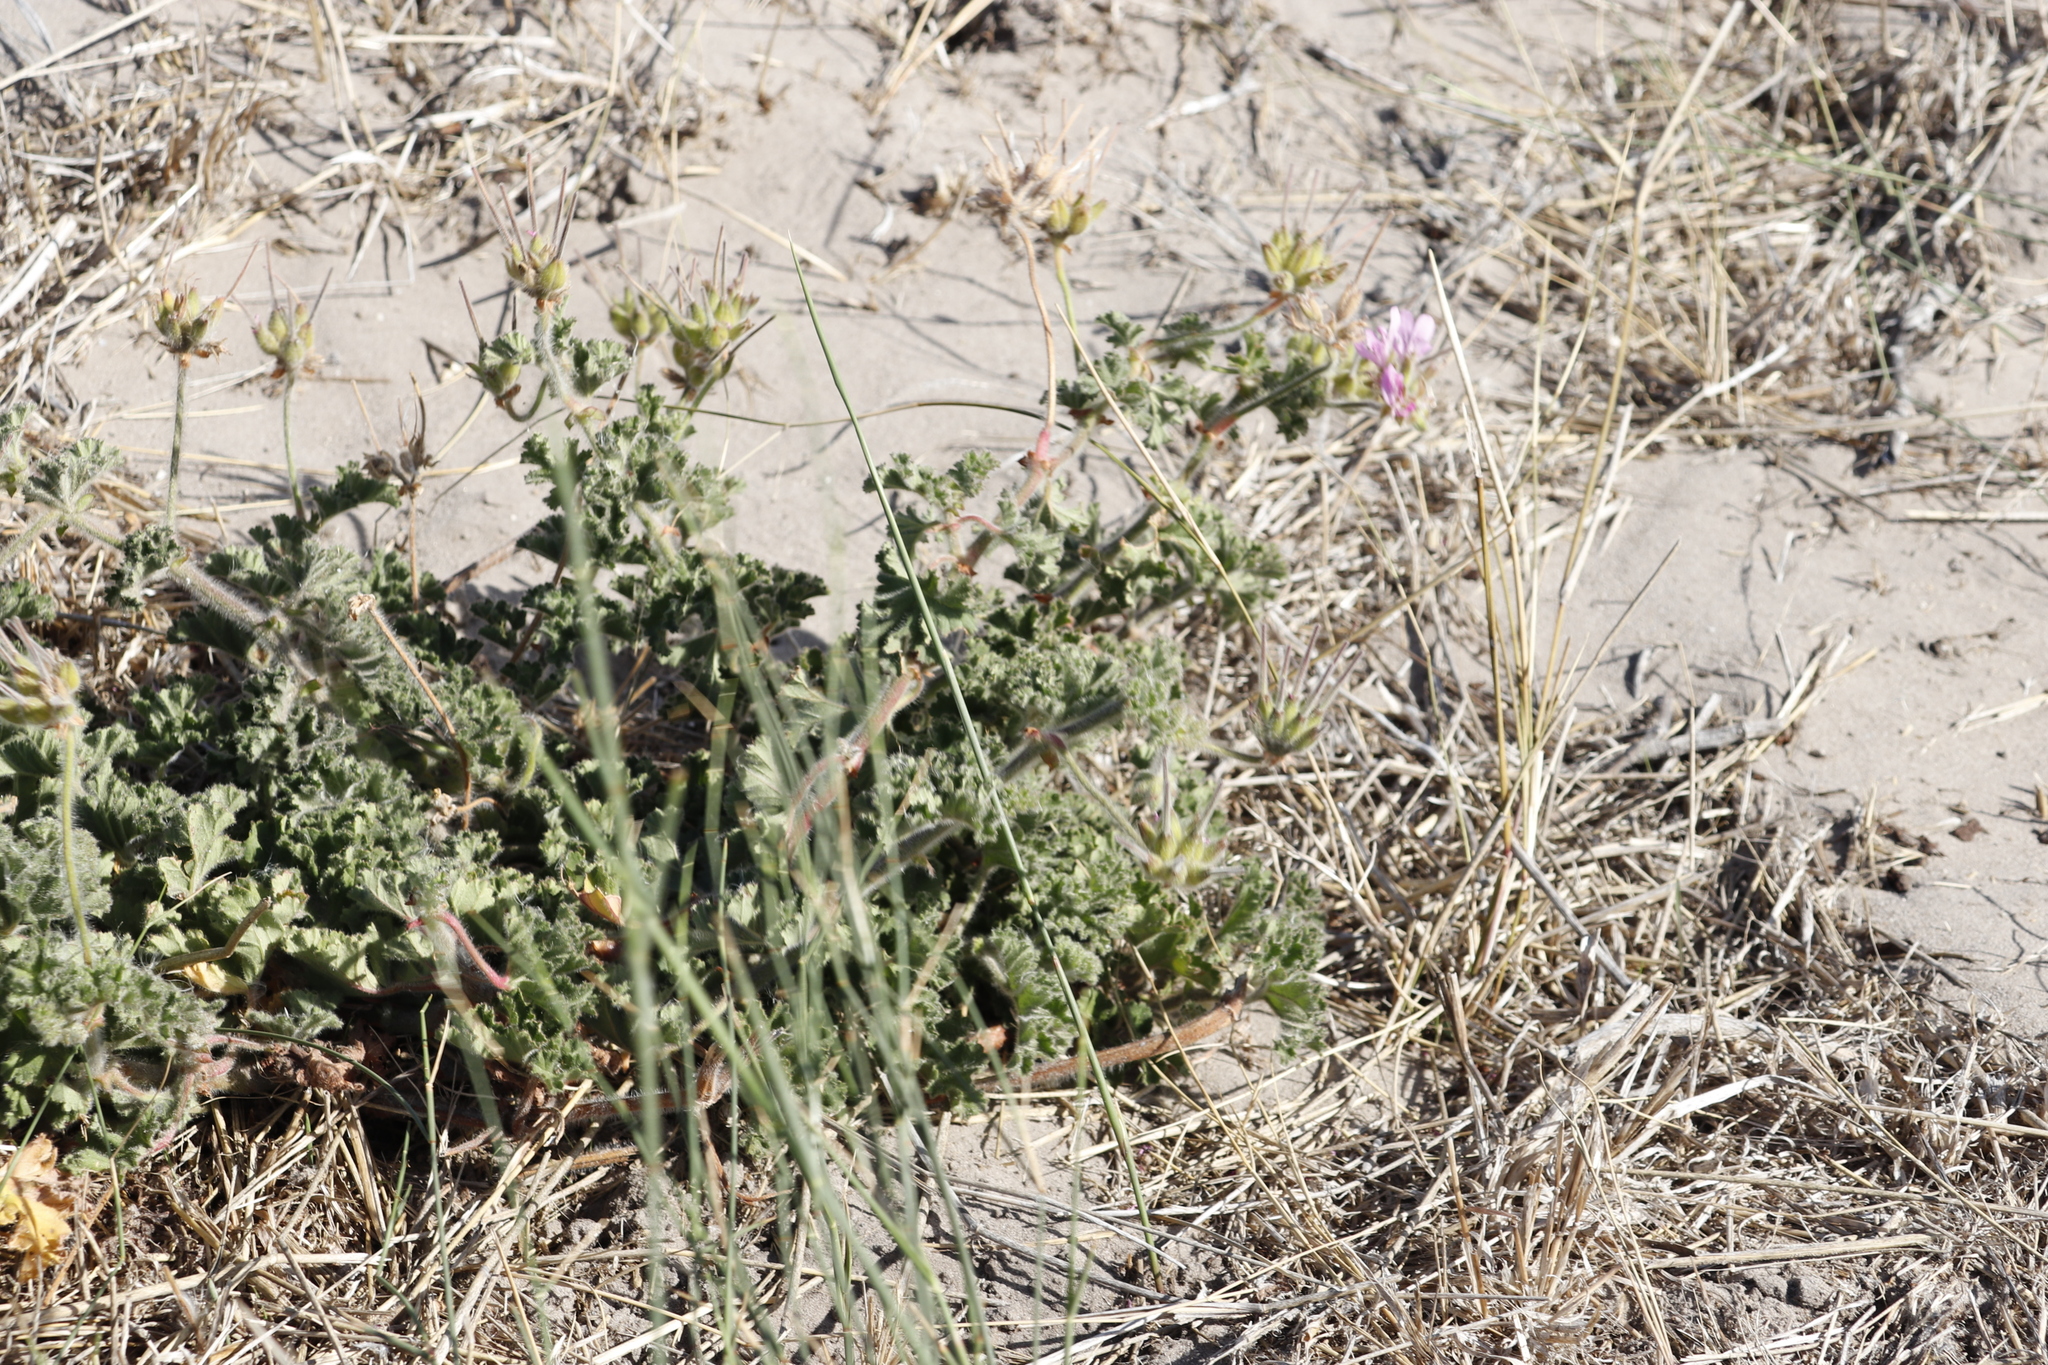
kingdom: Plantae
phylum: Tracheophyta
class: Magnoliopsida
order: Geraniales
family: Geraniaceae
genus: Pelargonium
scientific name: Pelargonium capitatum
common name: Rose scented geranium
